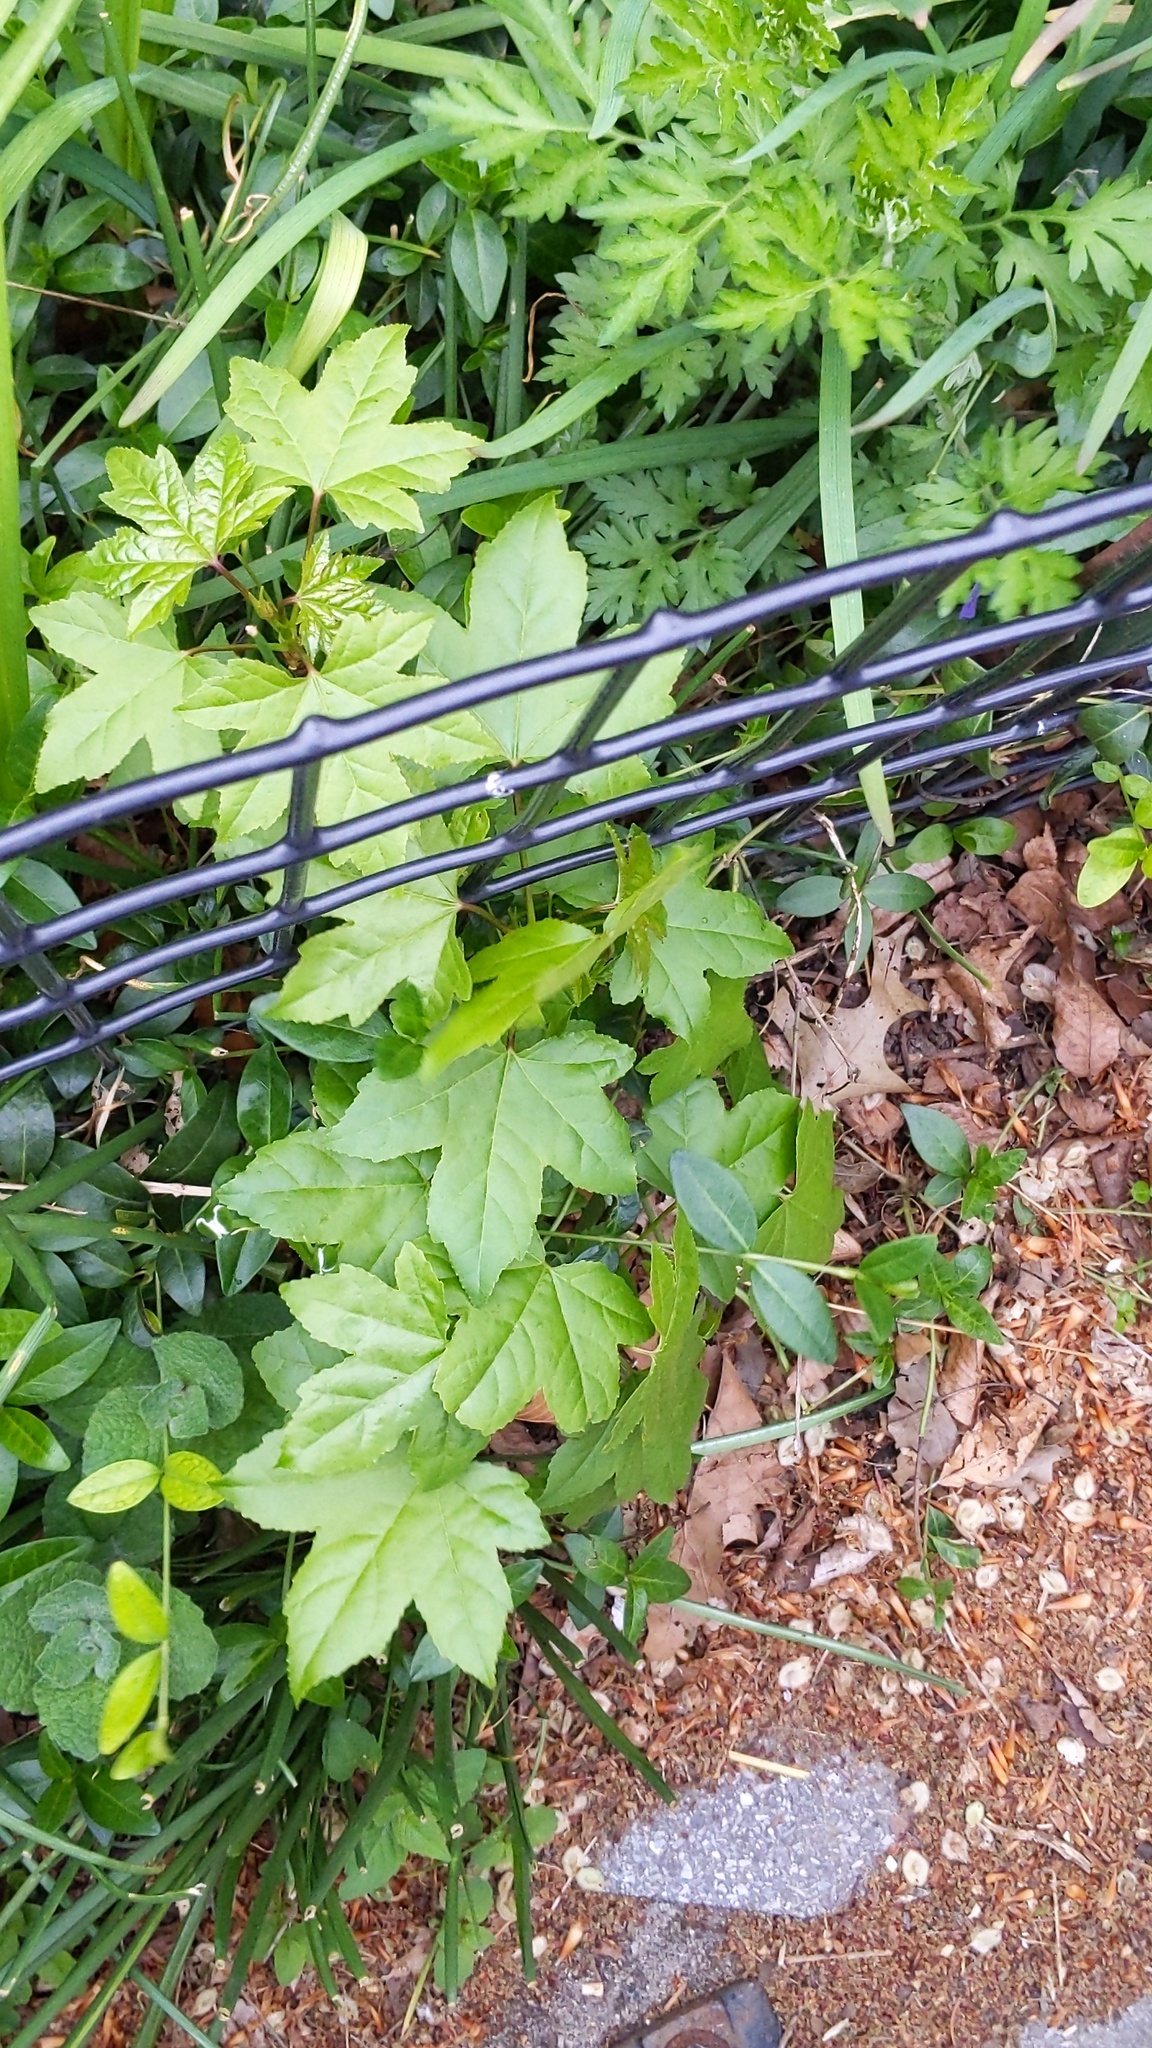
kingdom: Plantae
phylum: Tracheophyta
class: Magnoliopsida
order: Saxifragales
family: Altingiaceae
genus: Liquidambar
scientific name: Liquidambar styraciflua
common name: Sweet gum
